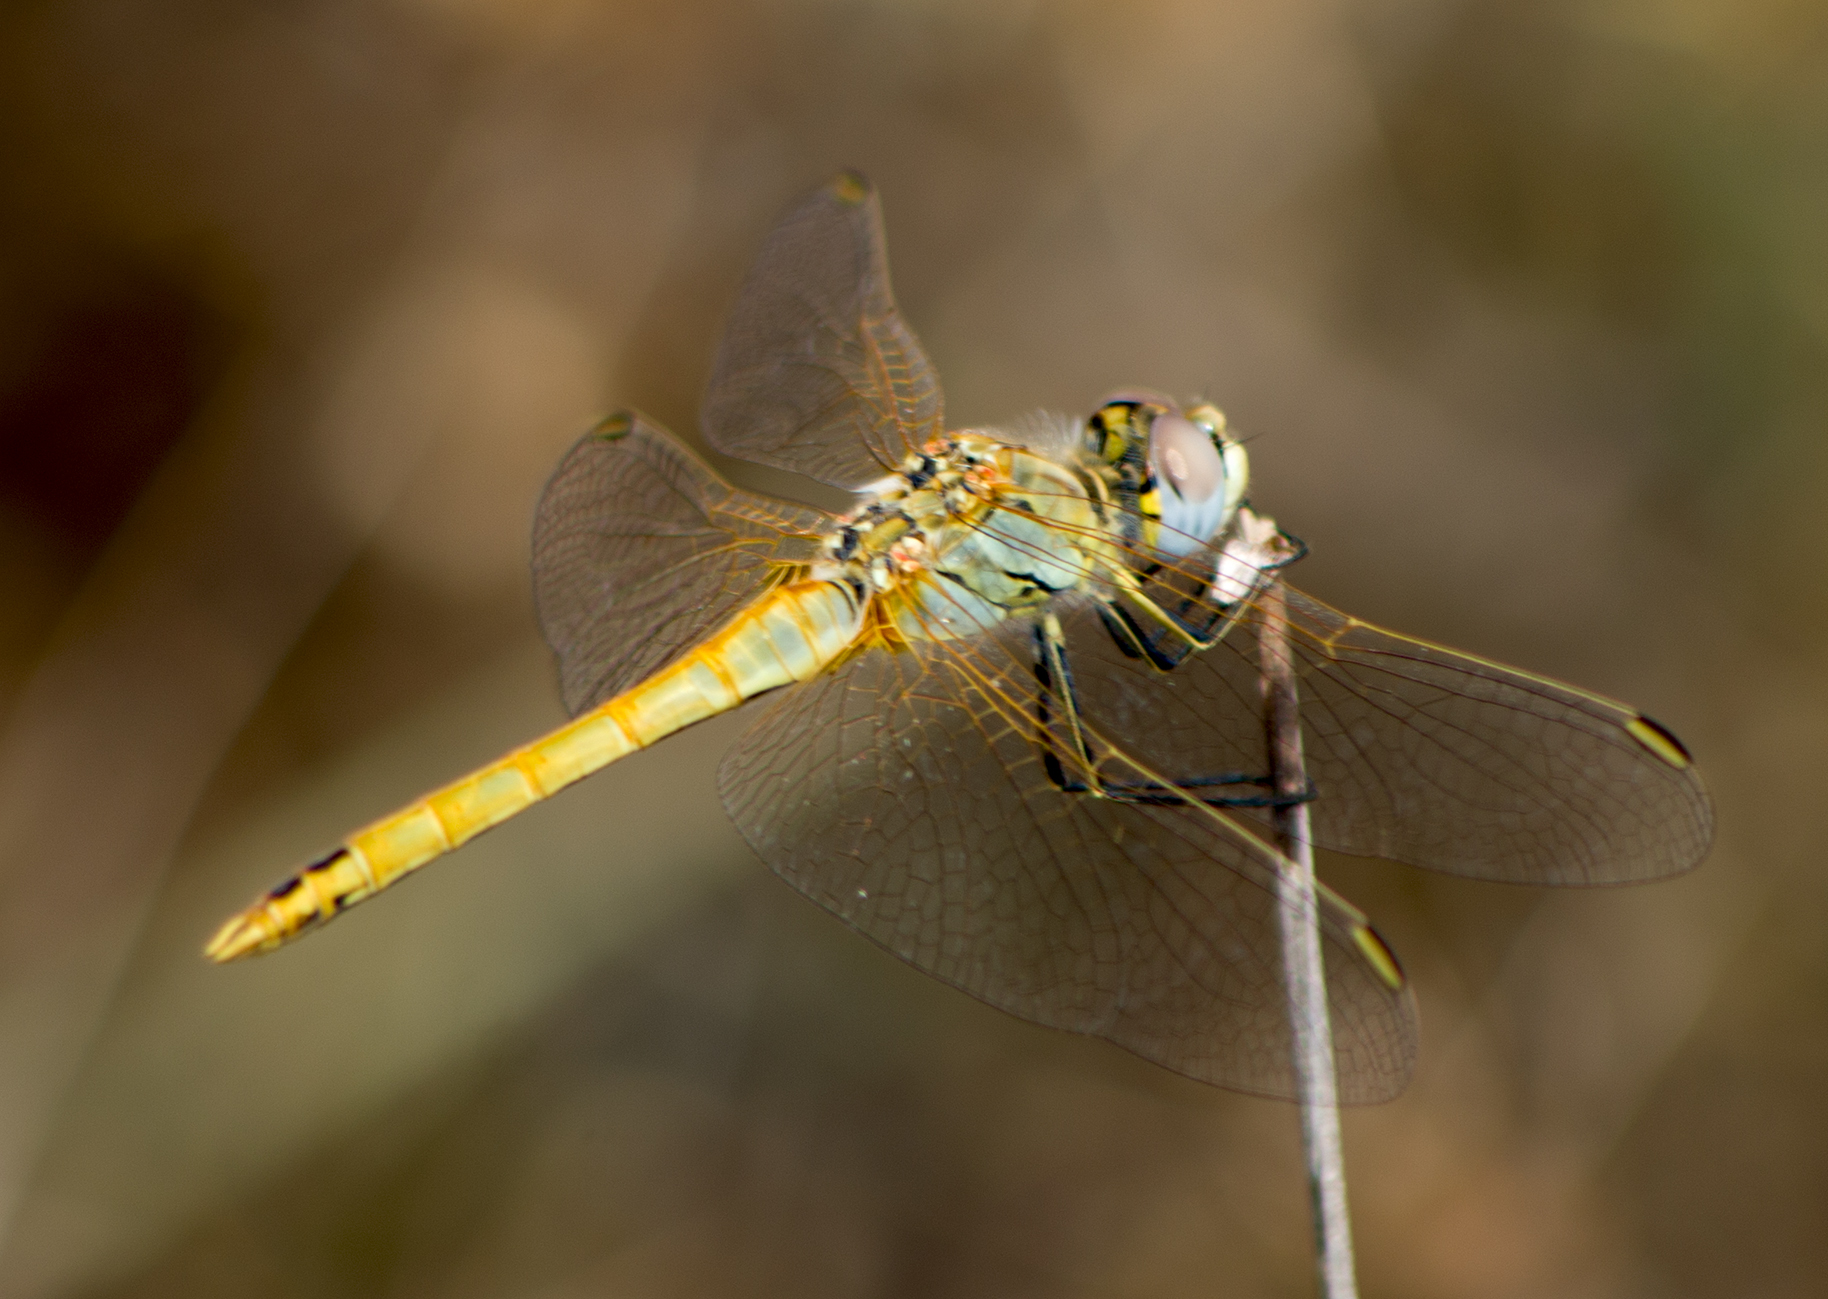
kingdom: Animalia
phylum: Arthropoda
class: Insecta
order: Odonata
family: Libellulidae
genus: Sympetrum
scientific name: Sympetrum fonscolombii
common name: Red-veined darter
